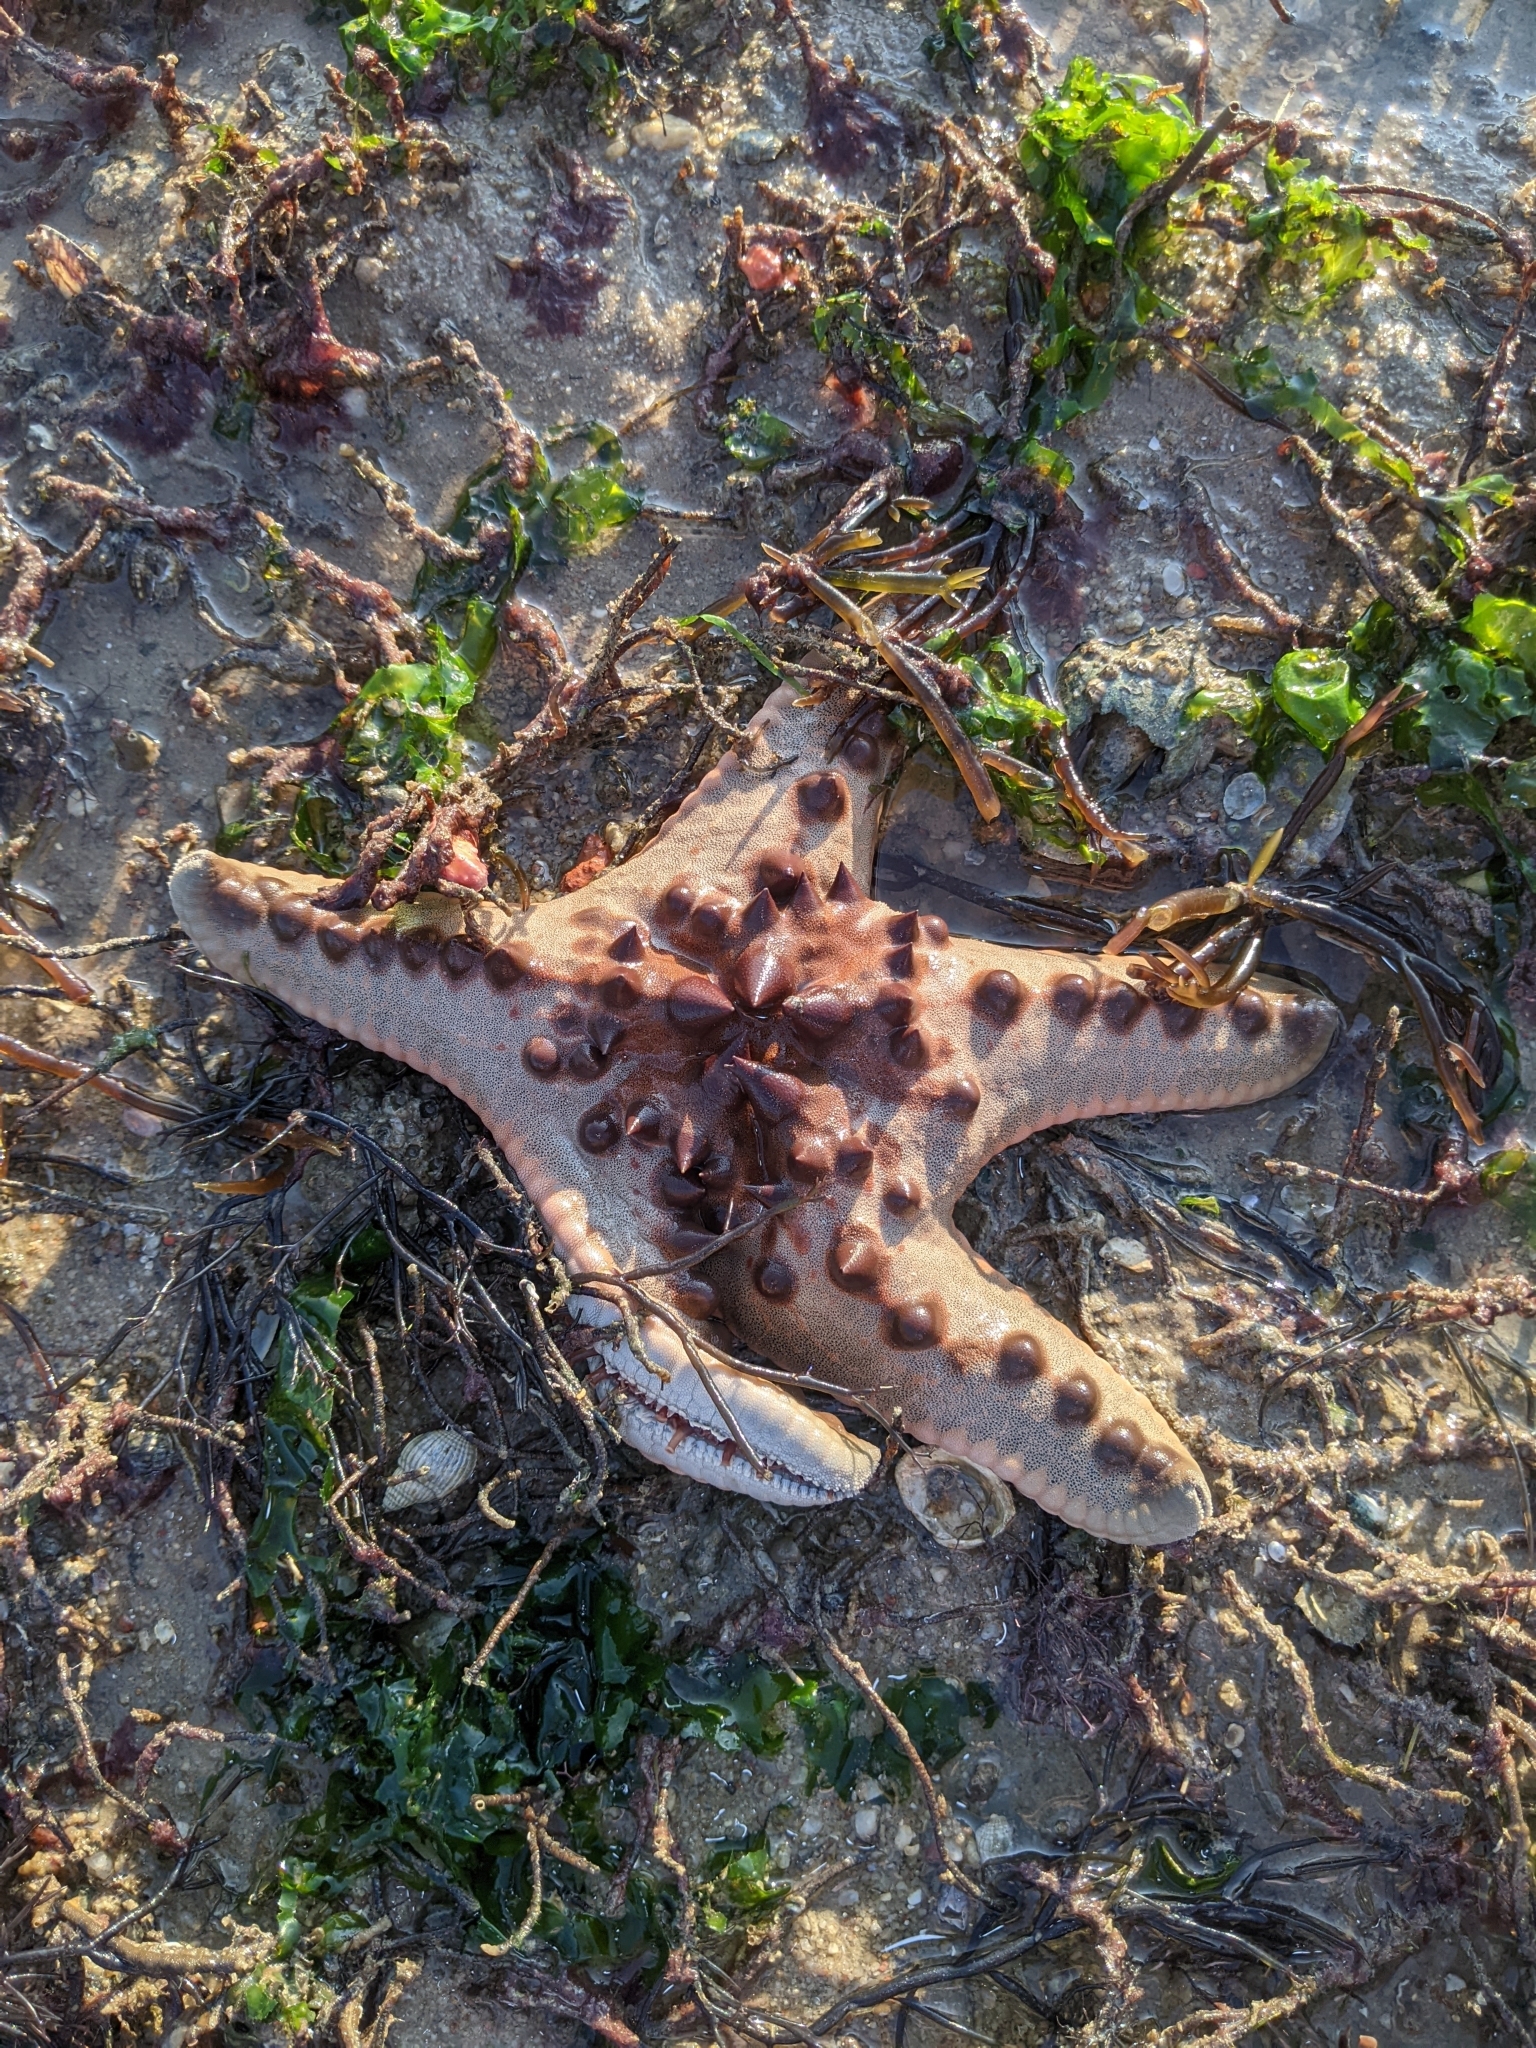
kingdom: Animalia
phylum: Echinodermata
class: Asteroidea
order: Valvatida
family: Oreasteridae
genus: Protoreaster
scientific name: Protoreaster nodosus
